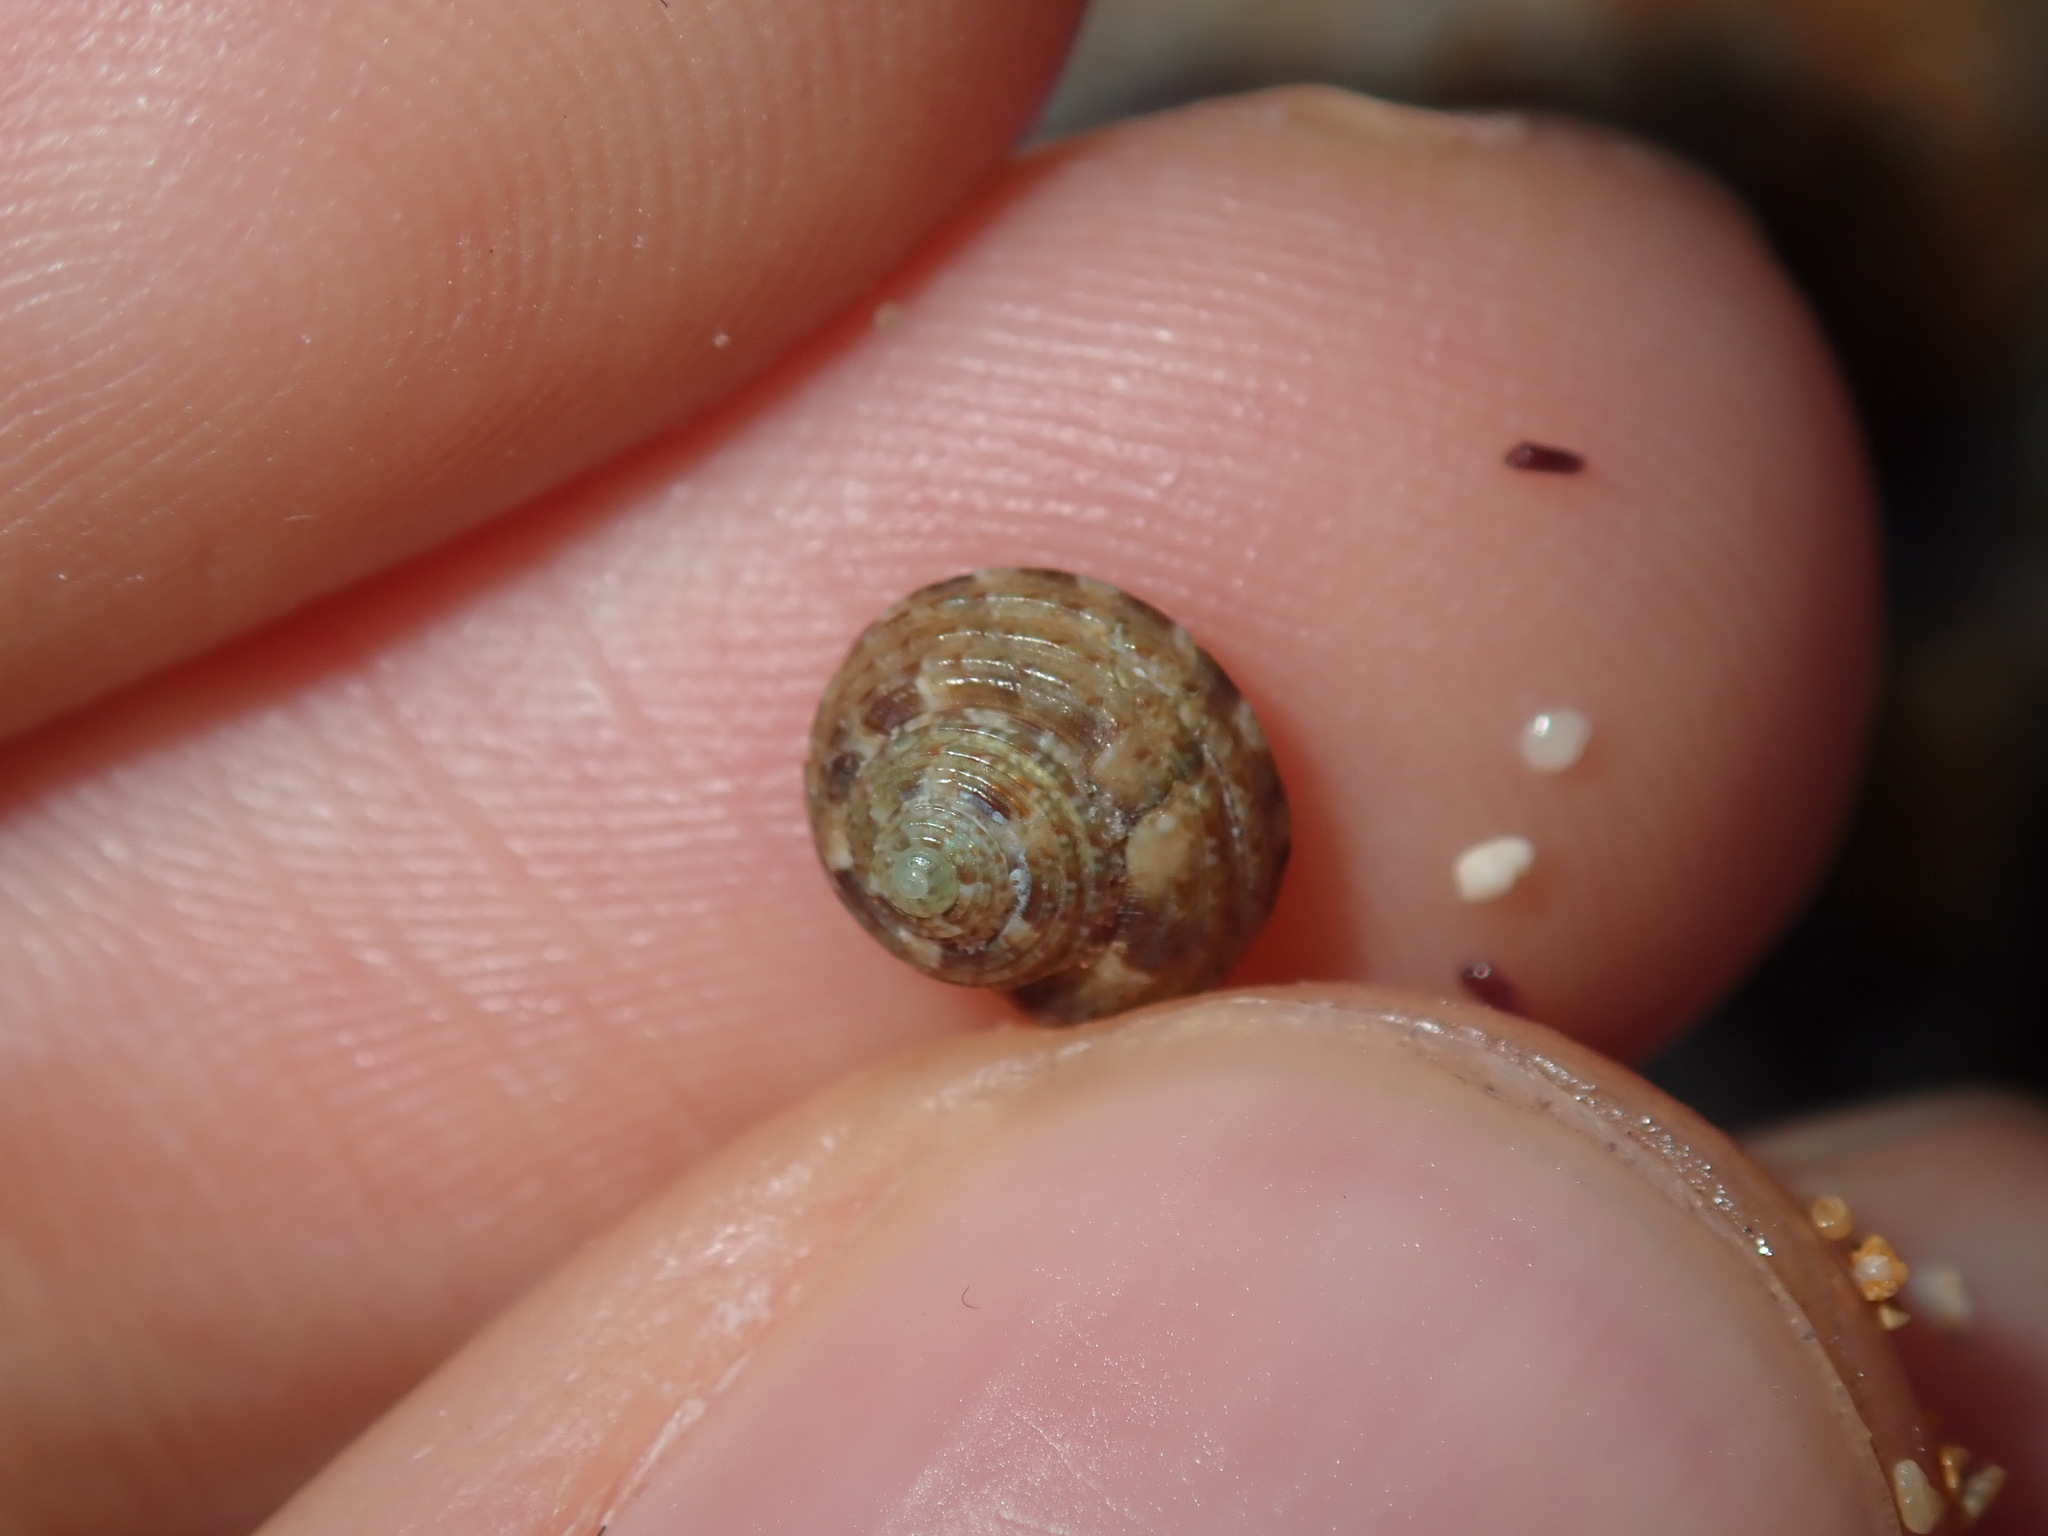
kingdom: Animalia
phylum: Mollusca
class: Gastropoda
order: Trochida
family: Trochidae
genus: Eurytrochus
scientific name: Eurytrochus strangei
